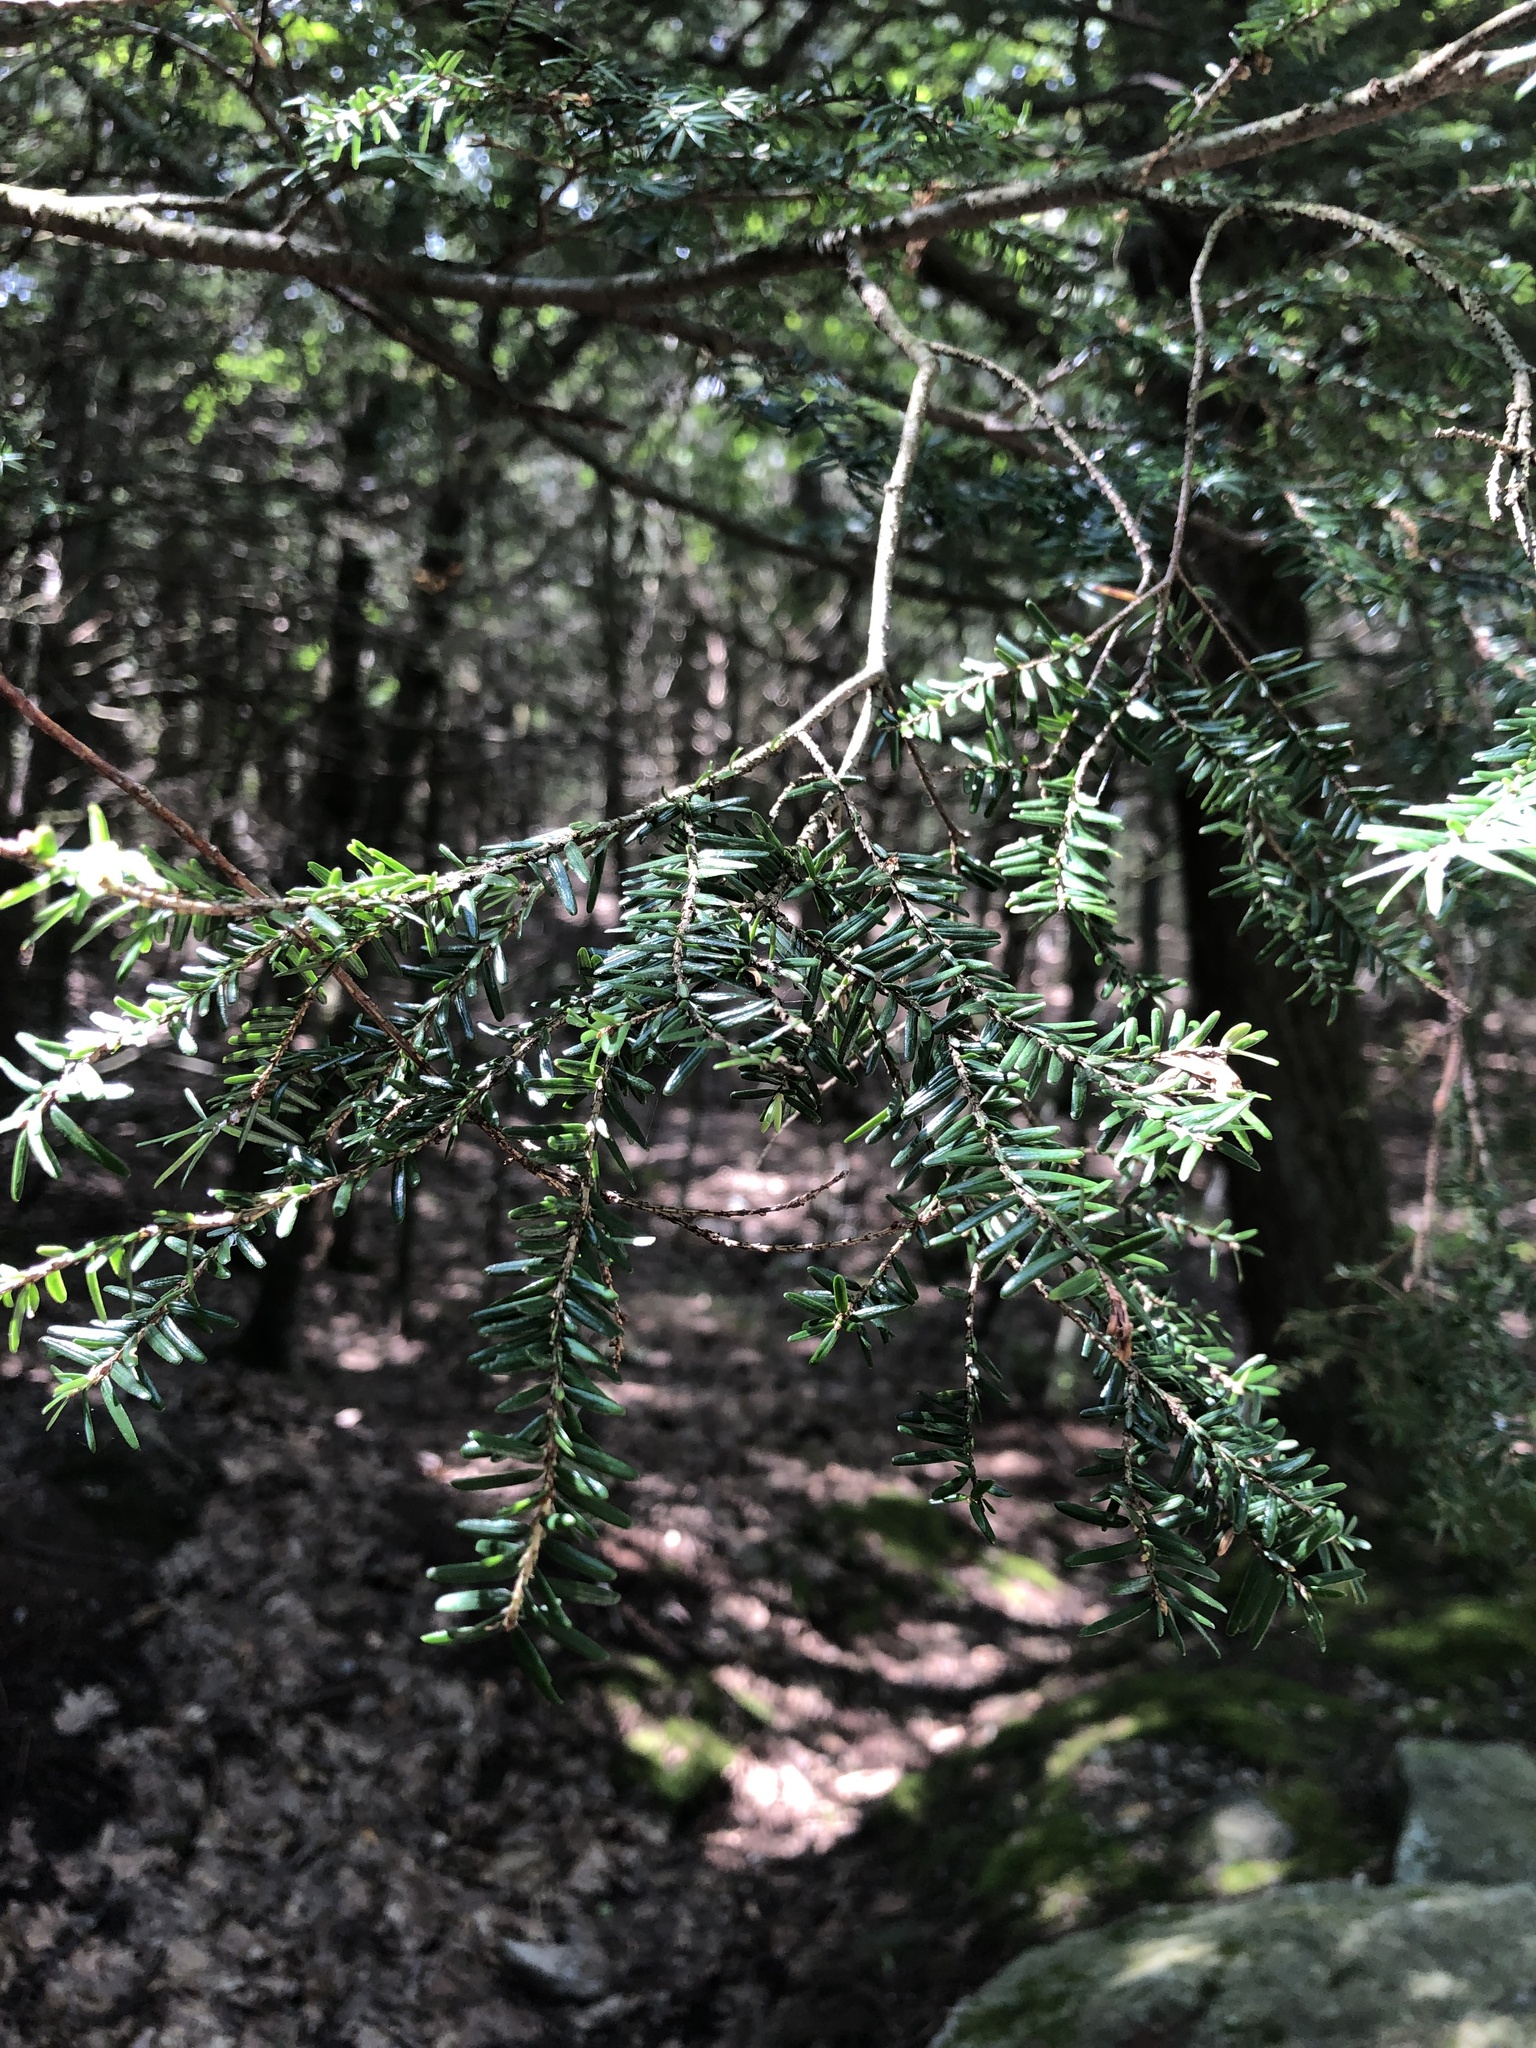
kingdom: Plantae
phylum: Tracheophyta
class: Pinopsida
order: Pinales
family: Pinaceae
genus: Tsuga
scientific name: Tsuga canadensis
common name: Eastern hemlock
